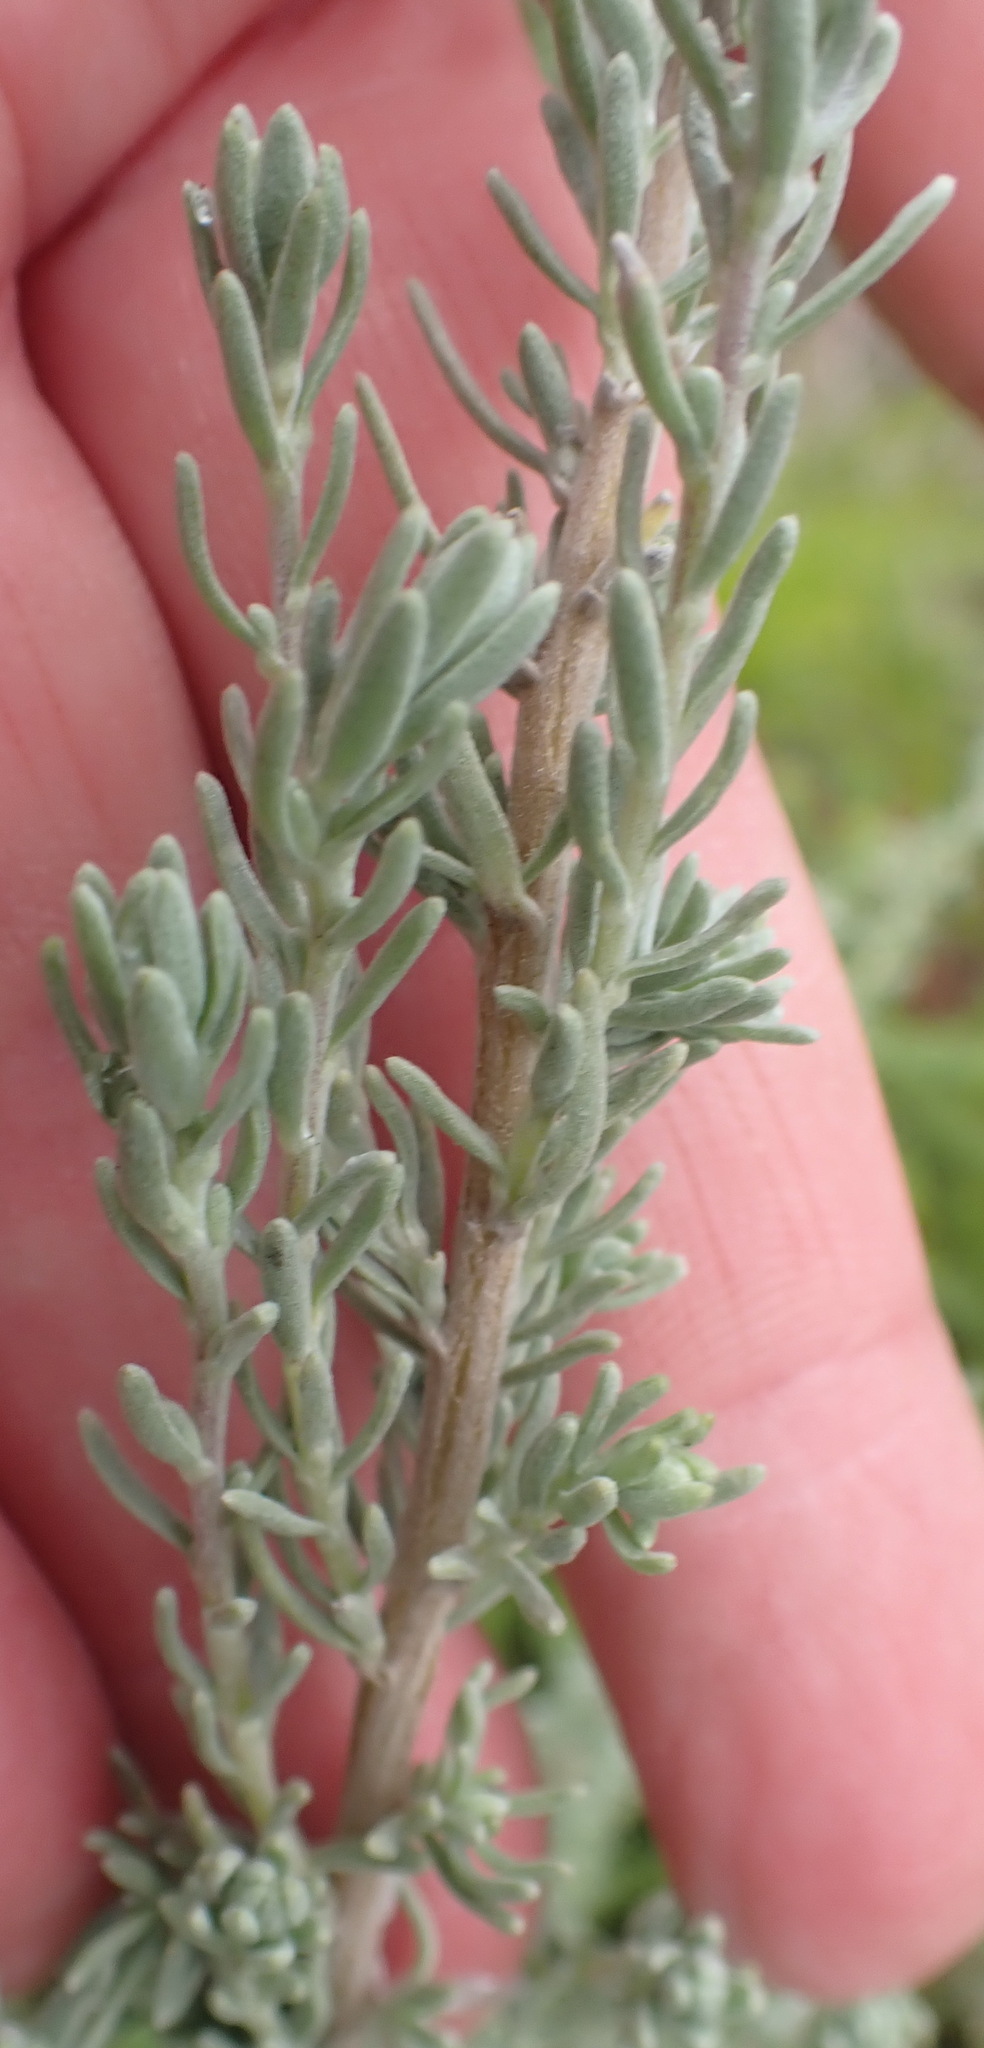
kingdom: Plantae
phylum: Tracheophyta
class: Magnoliopsida
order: Asterales
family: Asteraceae
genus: Eriocephalus
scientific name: Eriocephalus racemosus
